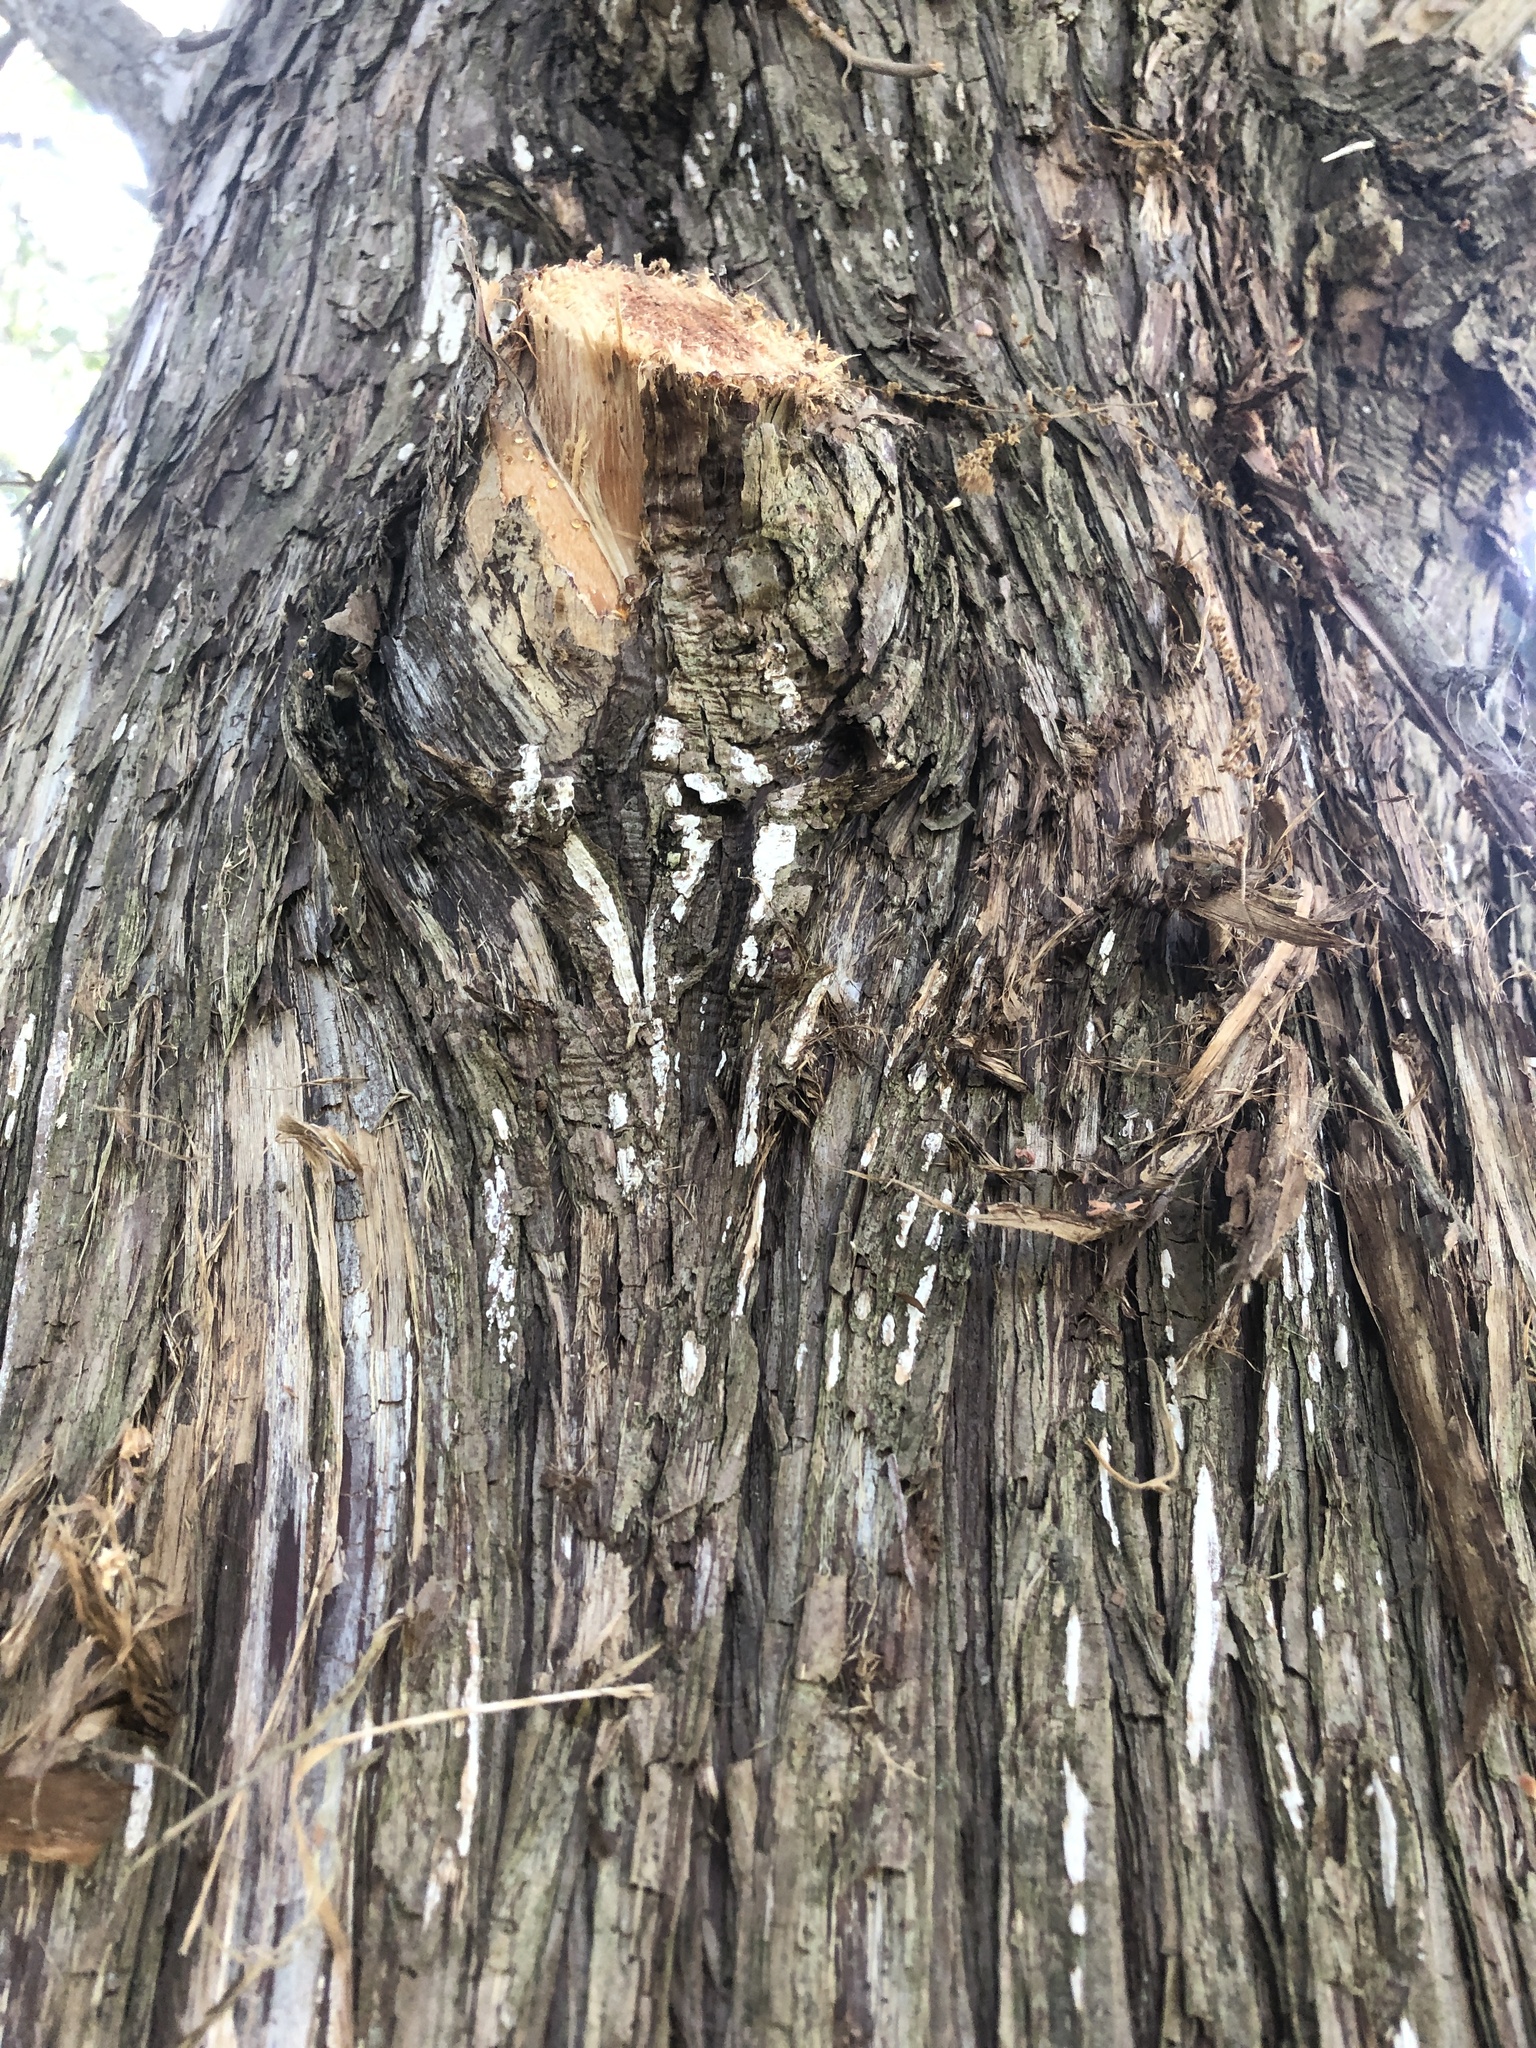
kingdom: Fungi
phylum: Basidiomycota
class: Agaricomycetes
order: Agaricales
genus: Dendrothele
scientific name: Dendrothele nivosa
